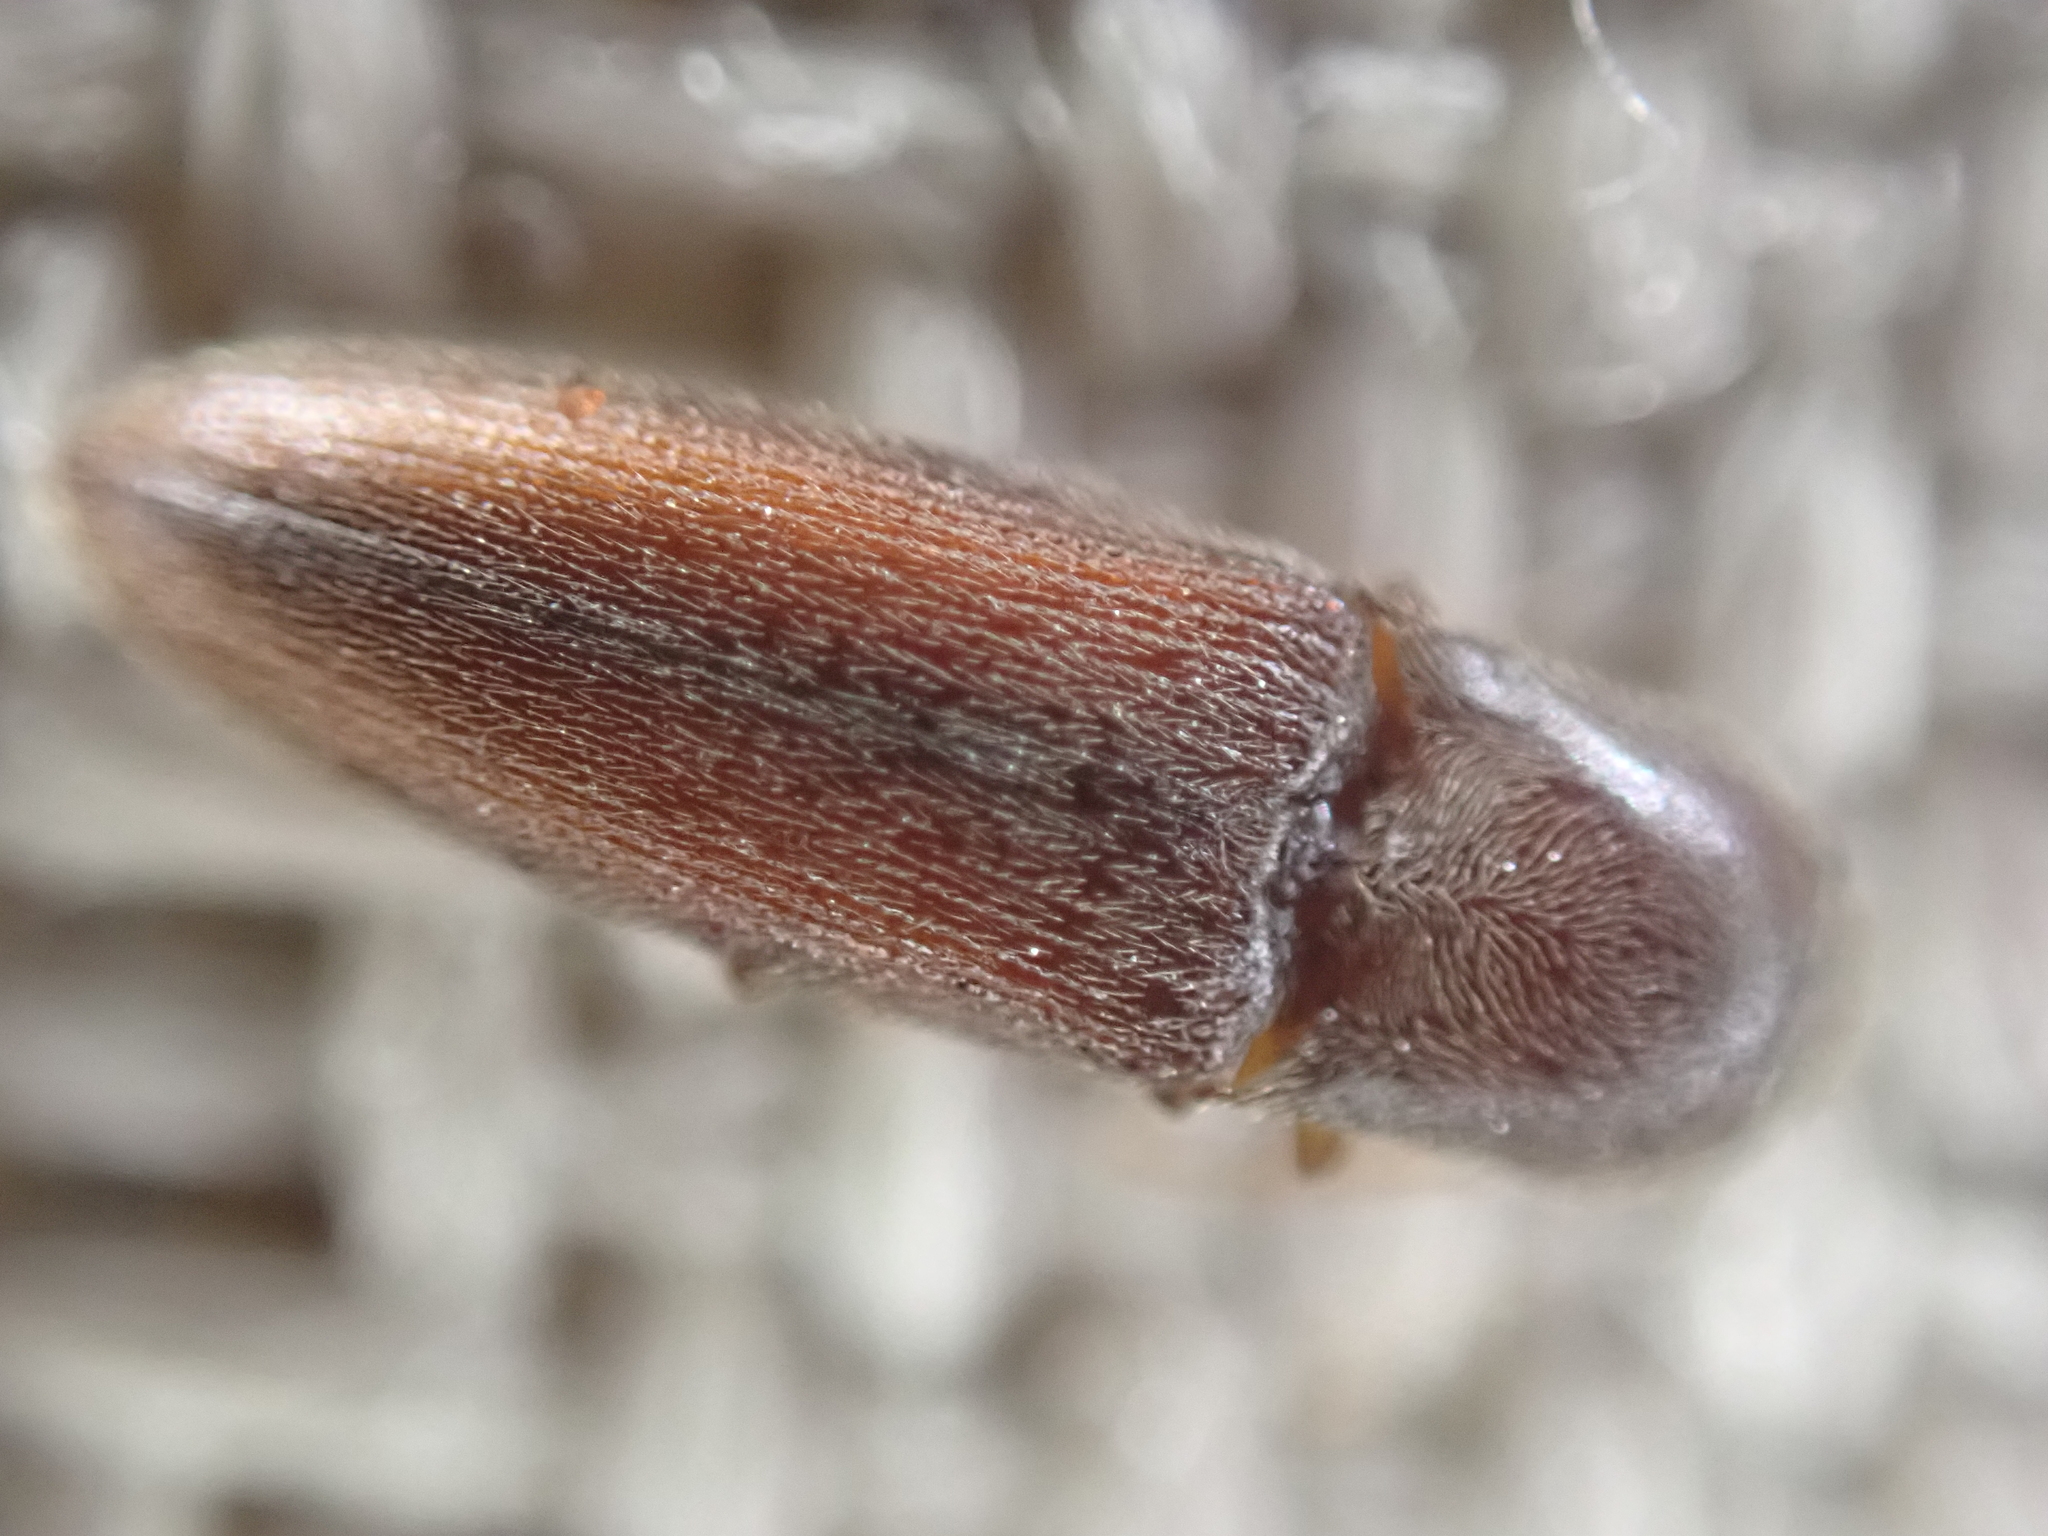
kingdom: Animalia
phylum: Arthropoda
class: Insecta
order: Coleoptera
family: Elateridae
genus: Glyphonyx
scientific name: Glyphonyx
